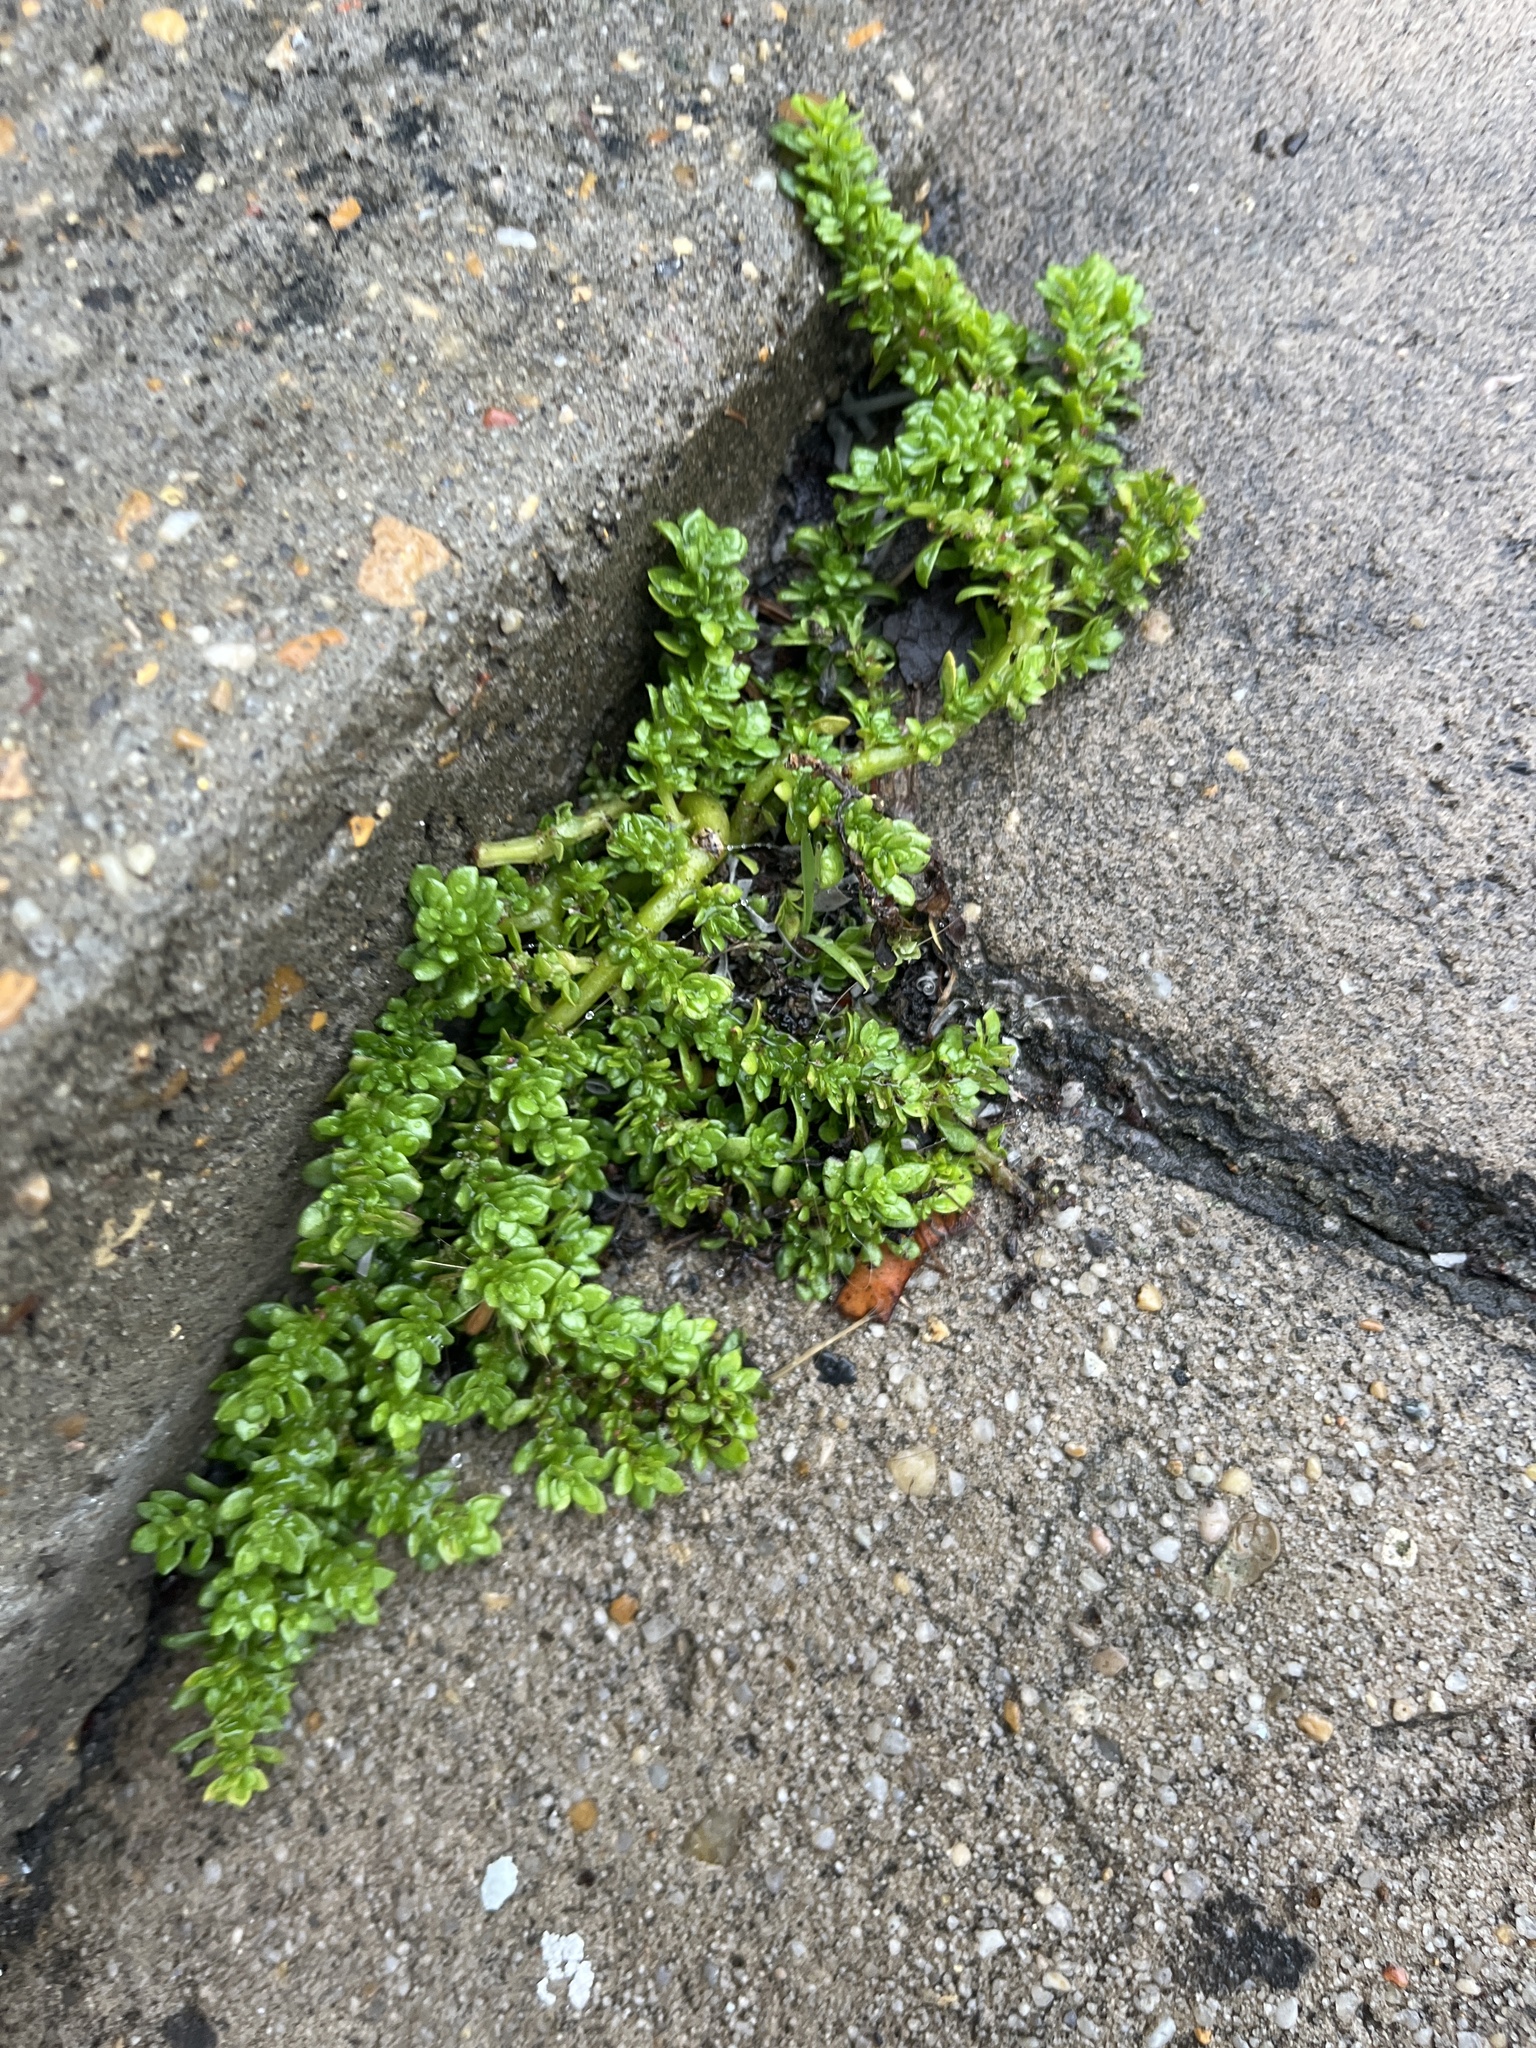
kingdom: Plantae
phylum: Tracheophyta
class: Magnoliopsida
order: Rosales
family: Urticaceae
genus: Pilea
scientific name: Pilea microphylla
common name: Artillery-plant
